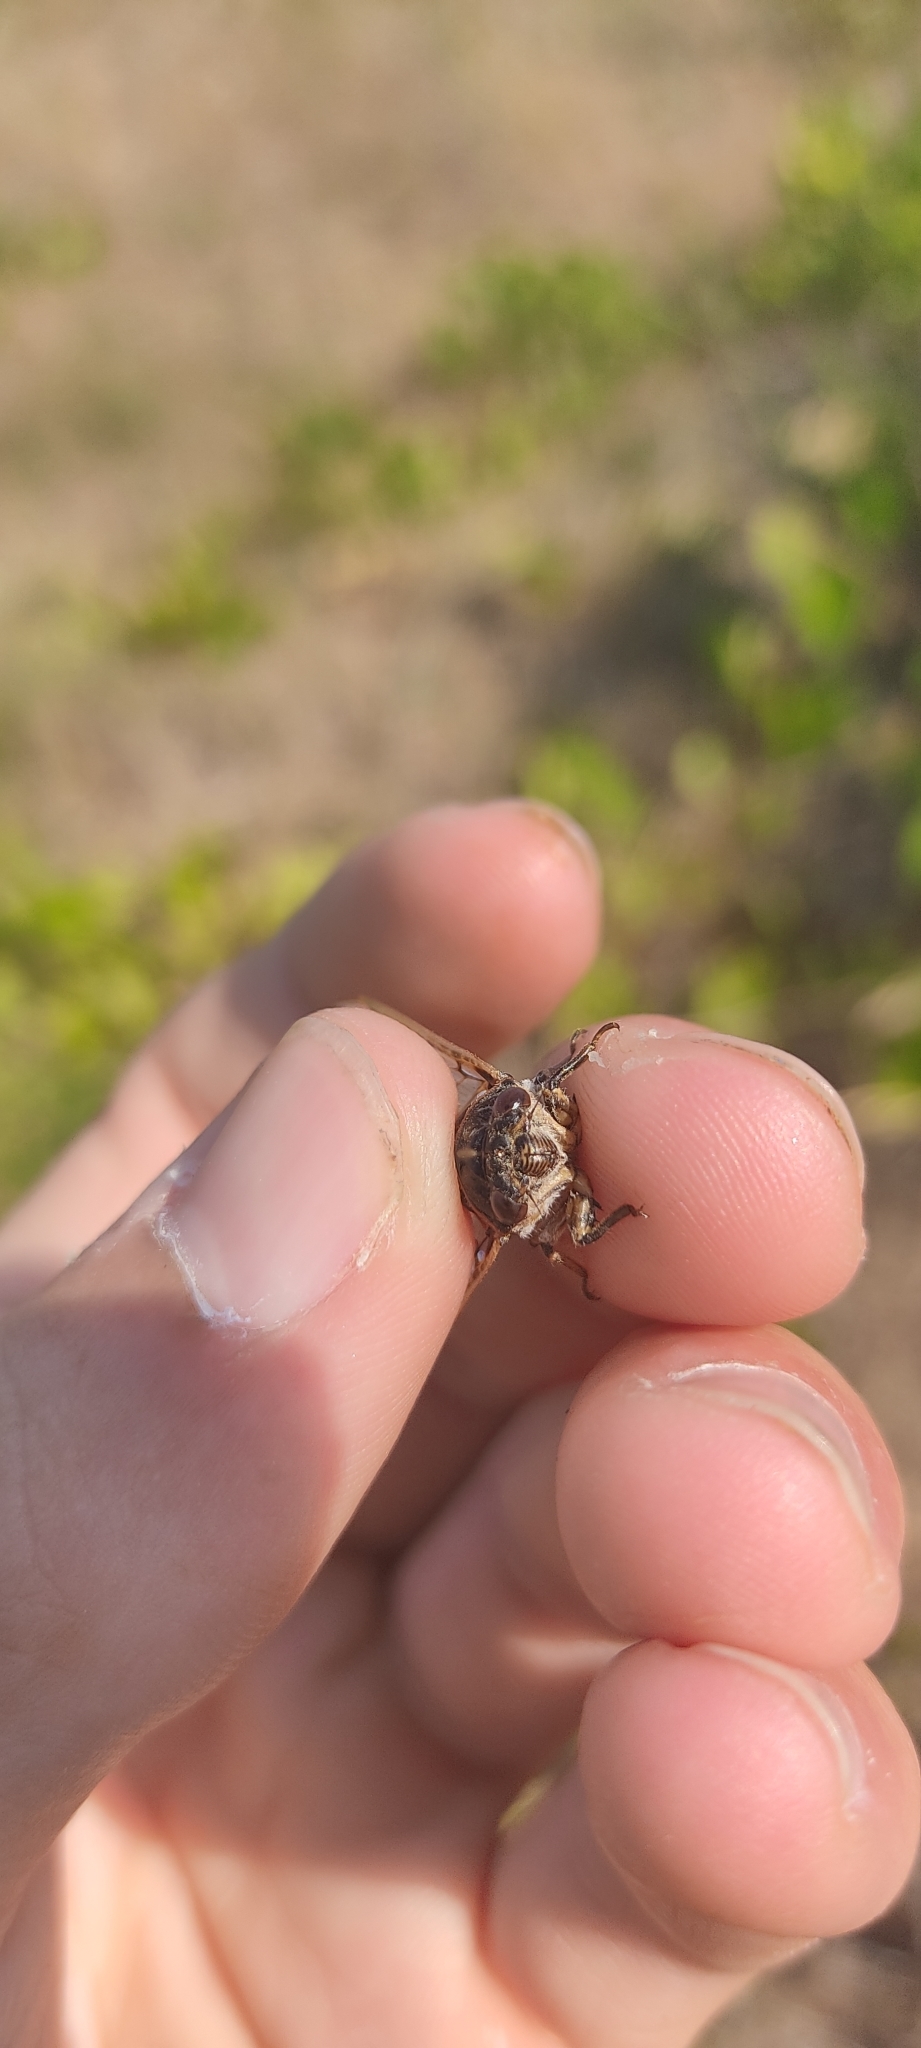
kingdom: Animalia
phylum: Arthropoda
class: Insecta
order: Hemiptera
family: Cicadidae
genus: Cicadatra
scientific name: Cicadatra atra
